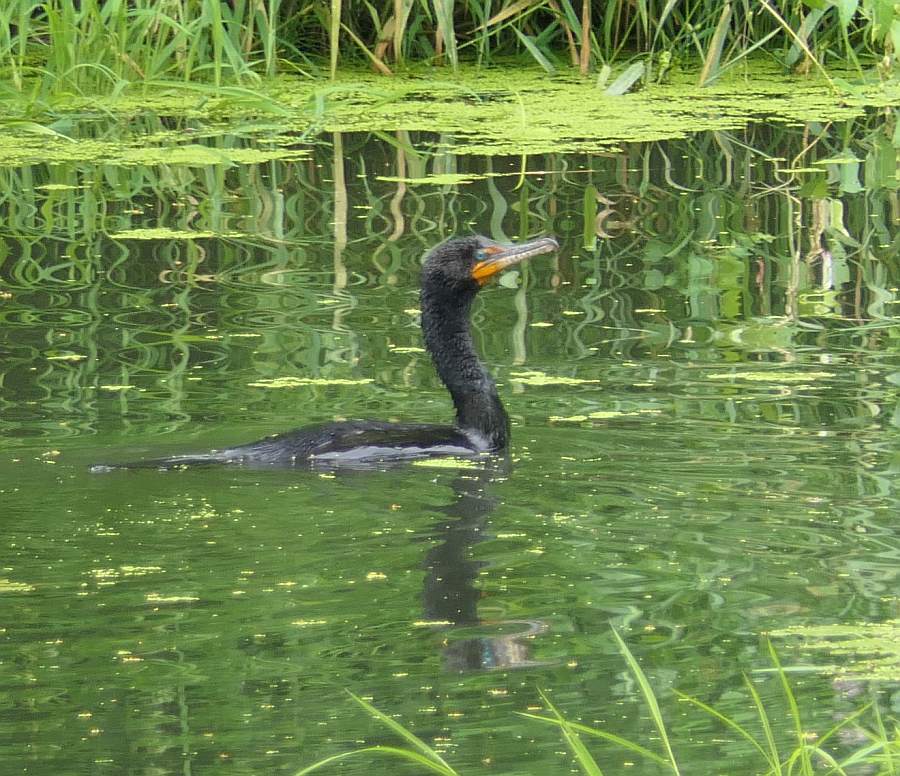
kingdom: Animalia
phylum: Chordata
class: Aves
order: Suliformes
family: Phalacrocoracidae
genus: Phalacrocorax
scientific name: Phalacrocorax auritus
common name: Double-crested cormorant
